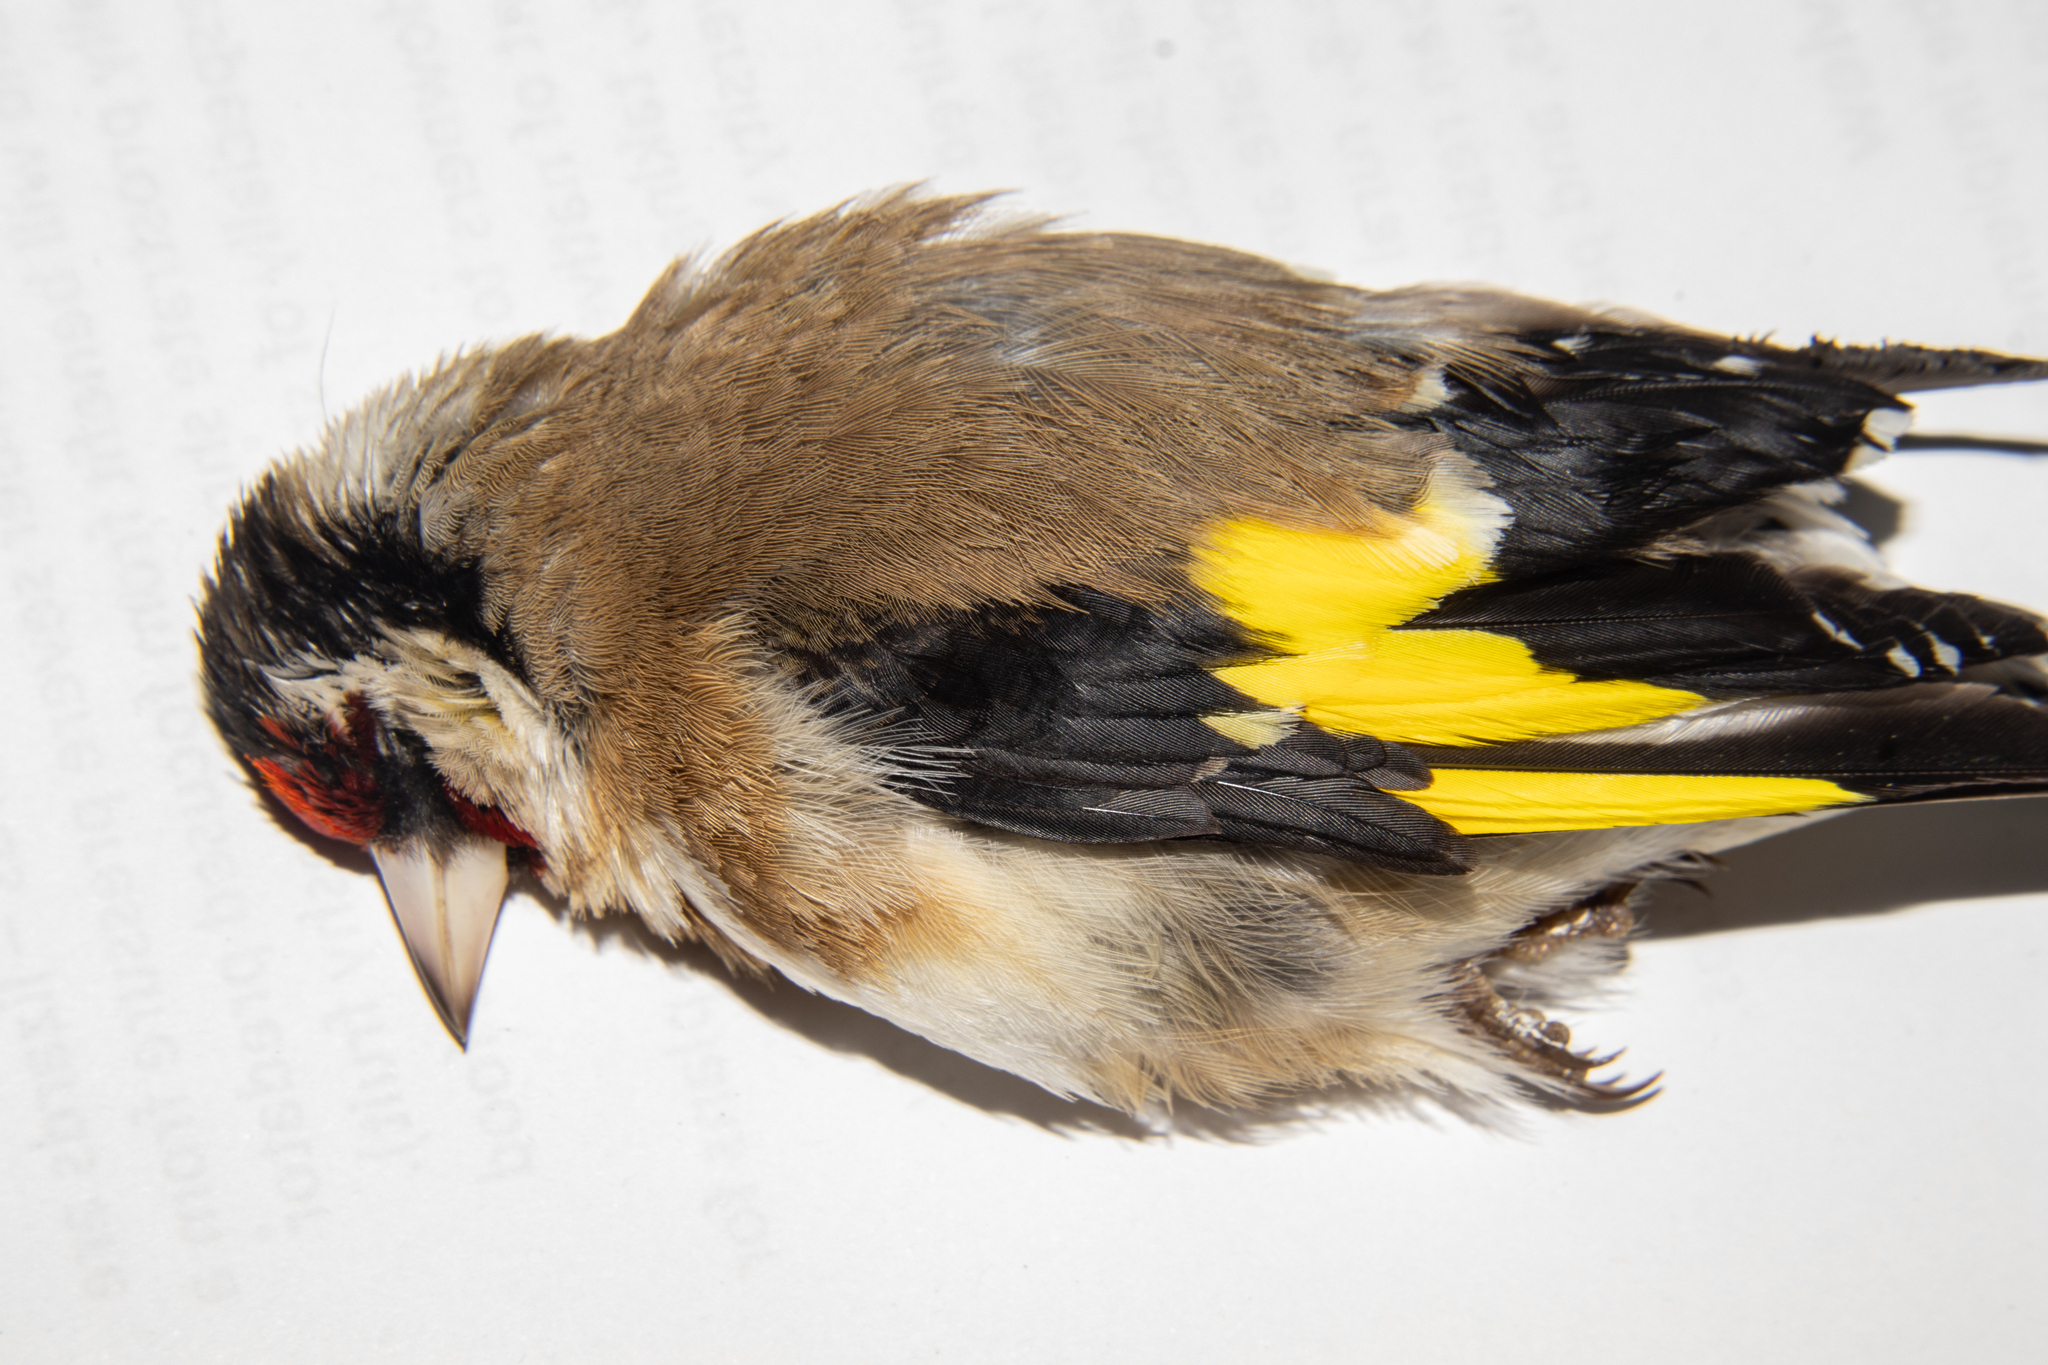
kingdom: Animalia
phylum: Chordata
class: Aves
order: Passeriformes
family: Fringillidae
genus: Carduelis
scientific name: Carduelis carduelis
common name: European goldfinch
